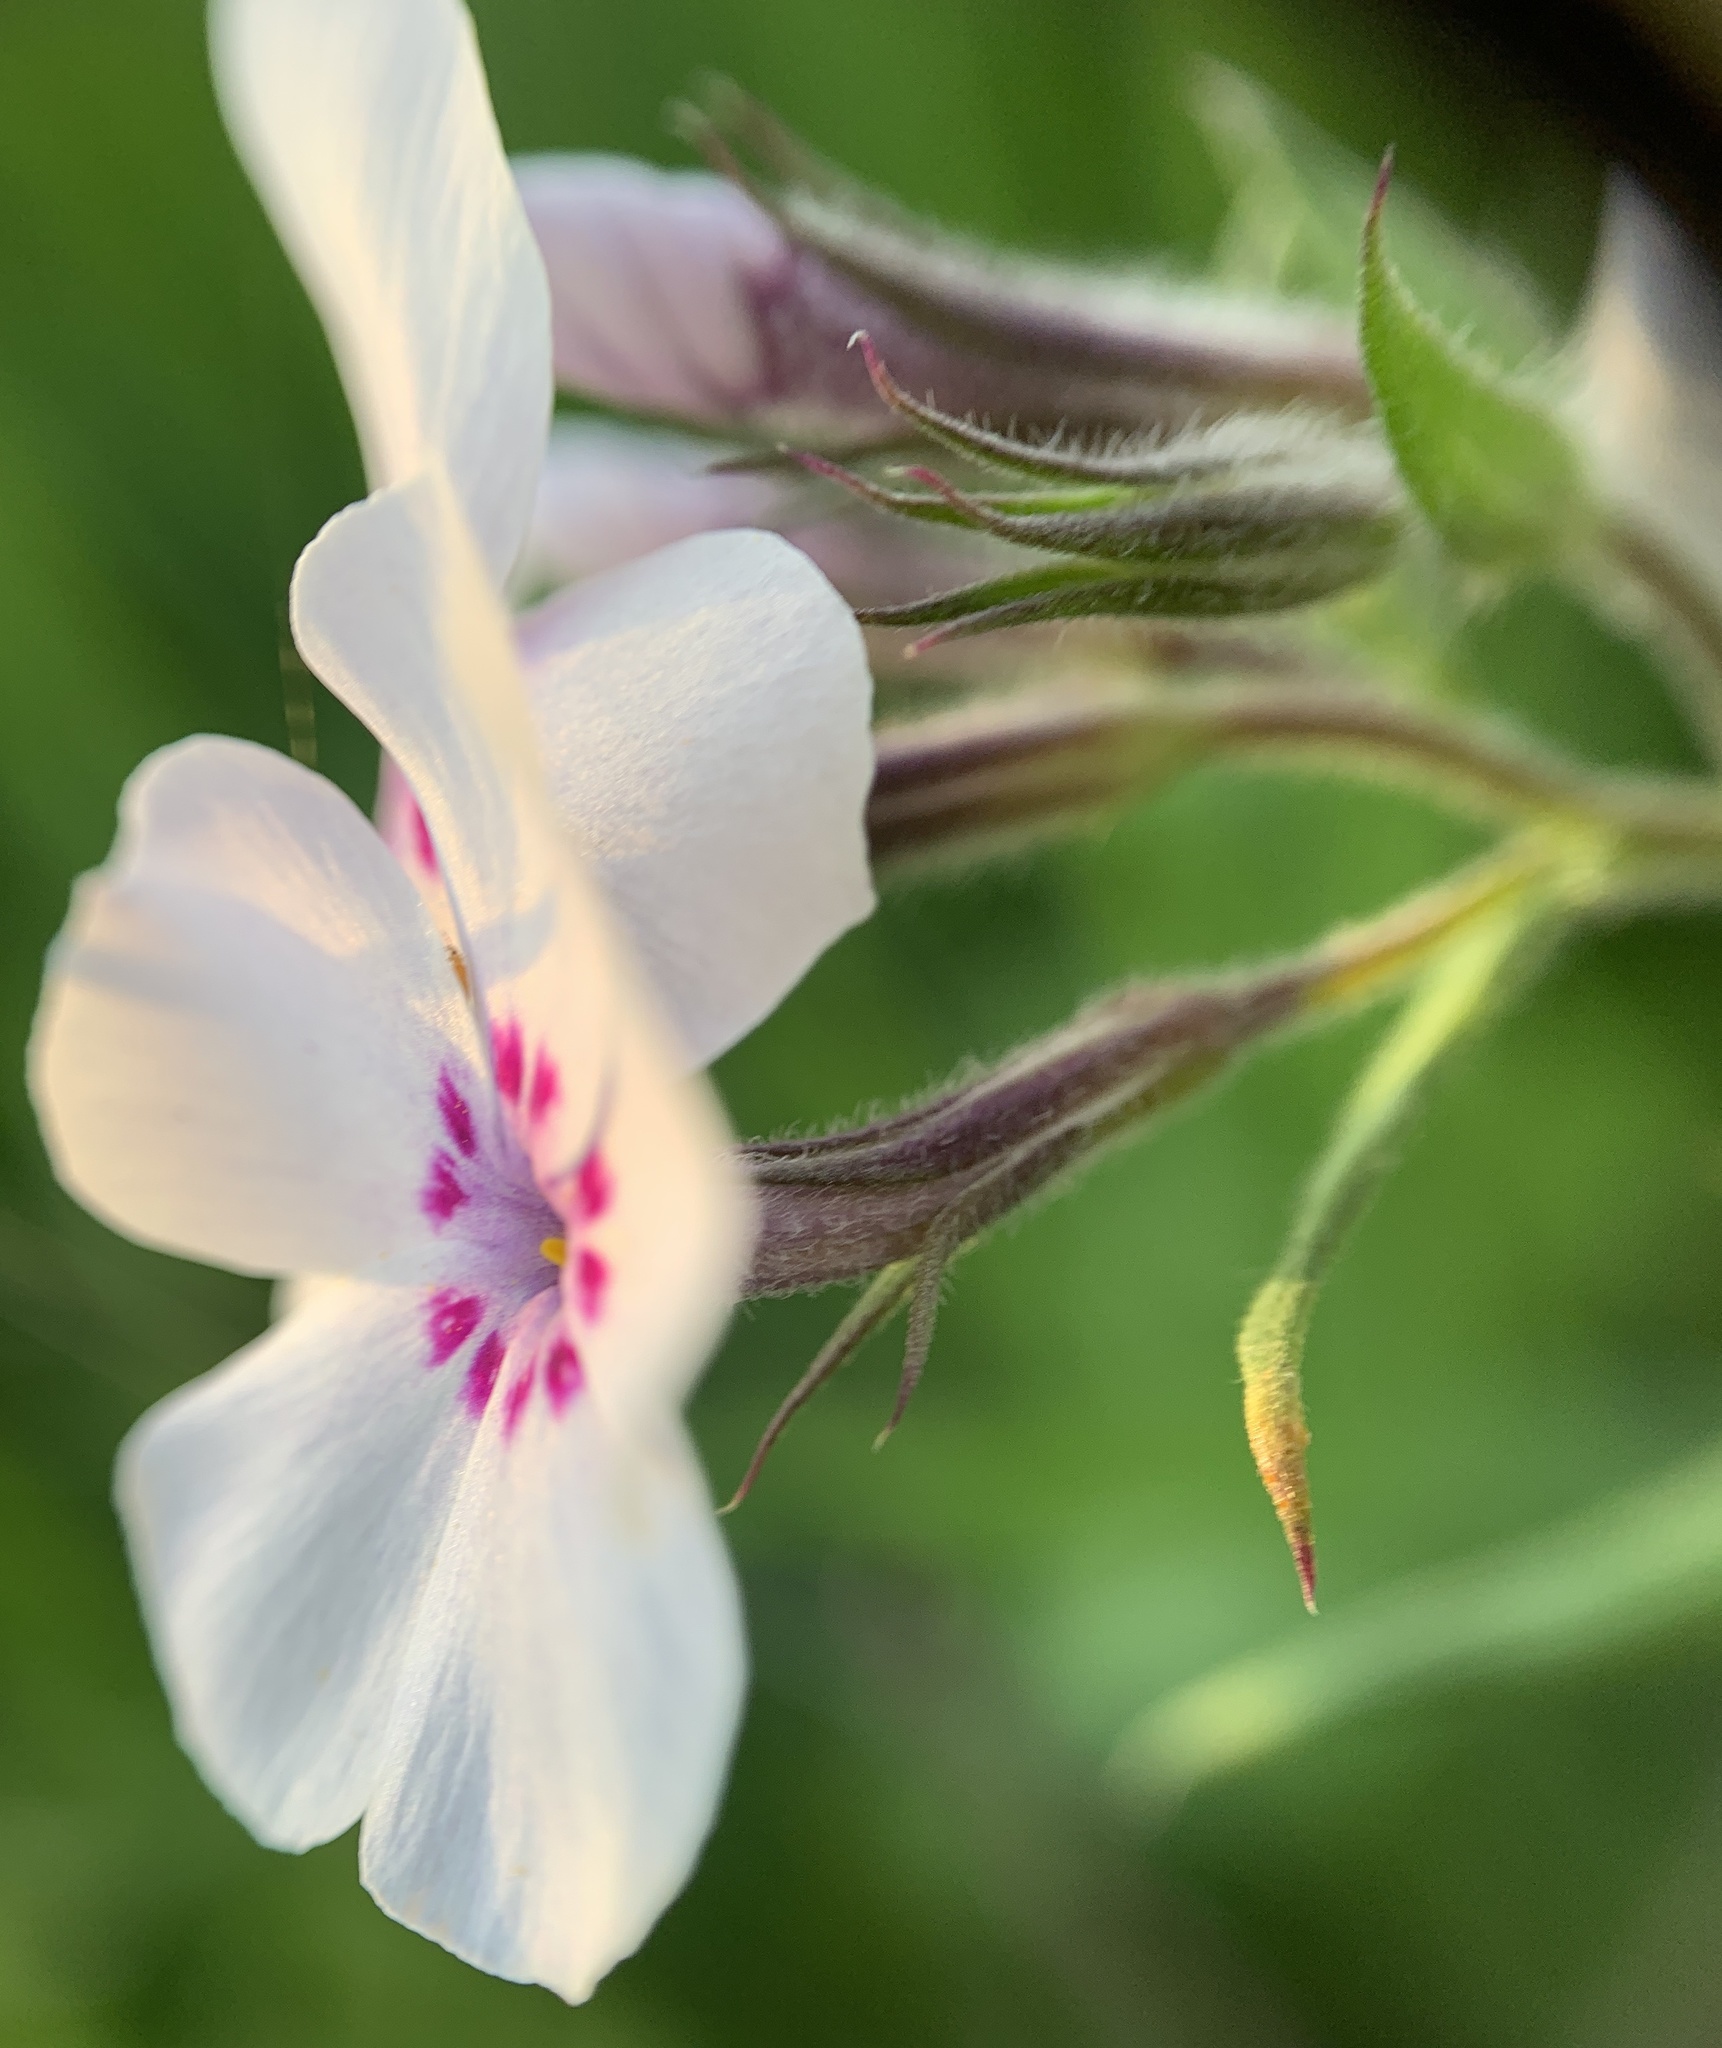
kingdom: Plantae
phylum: Tracheophyta
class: Magnoliopsida
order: Ericales
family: Polemoniaceae
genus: Phlox
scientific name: Phlox pilosa
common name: Prairie phlox
